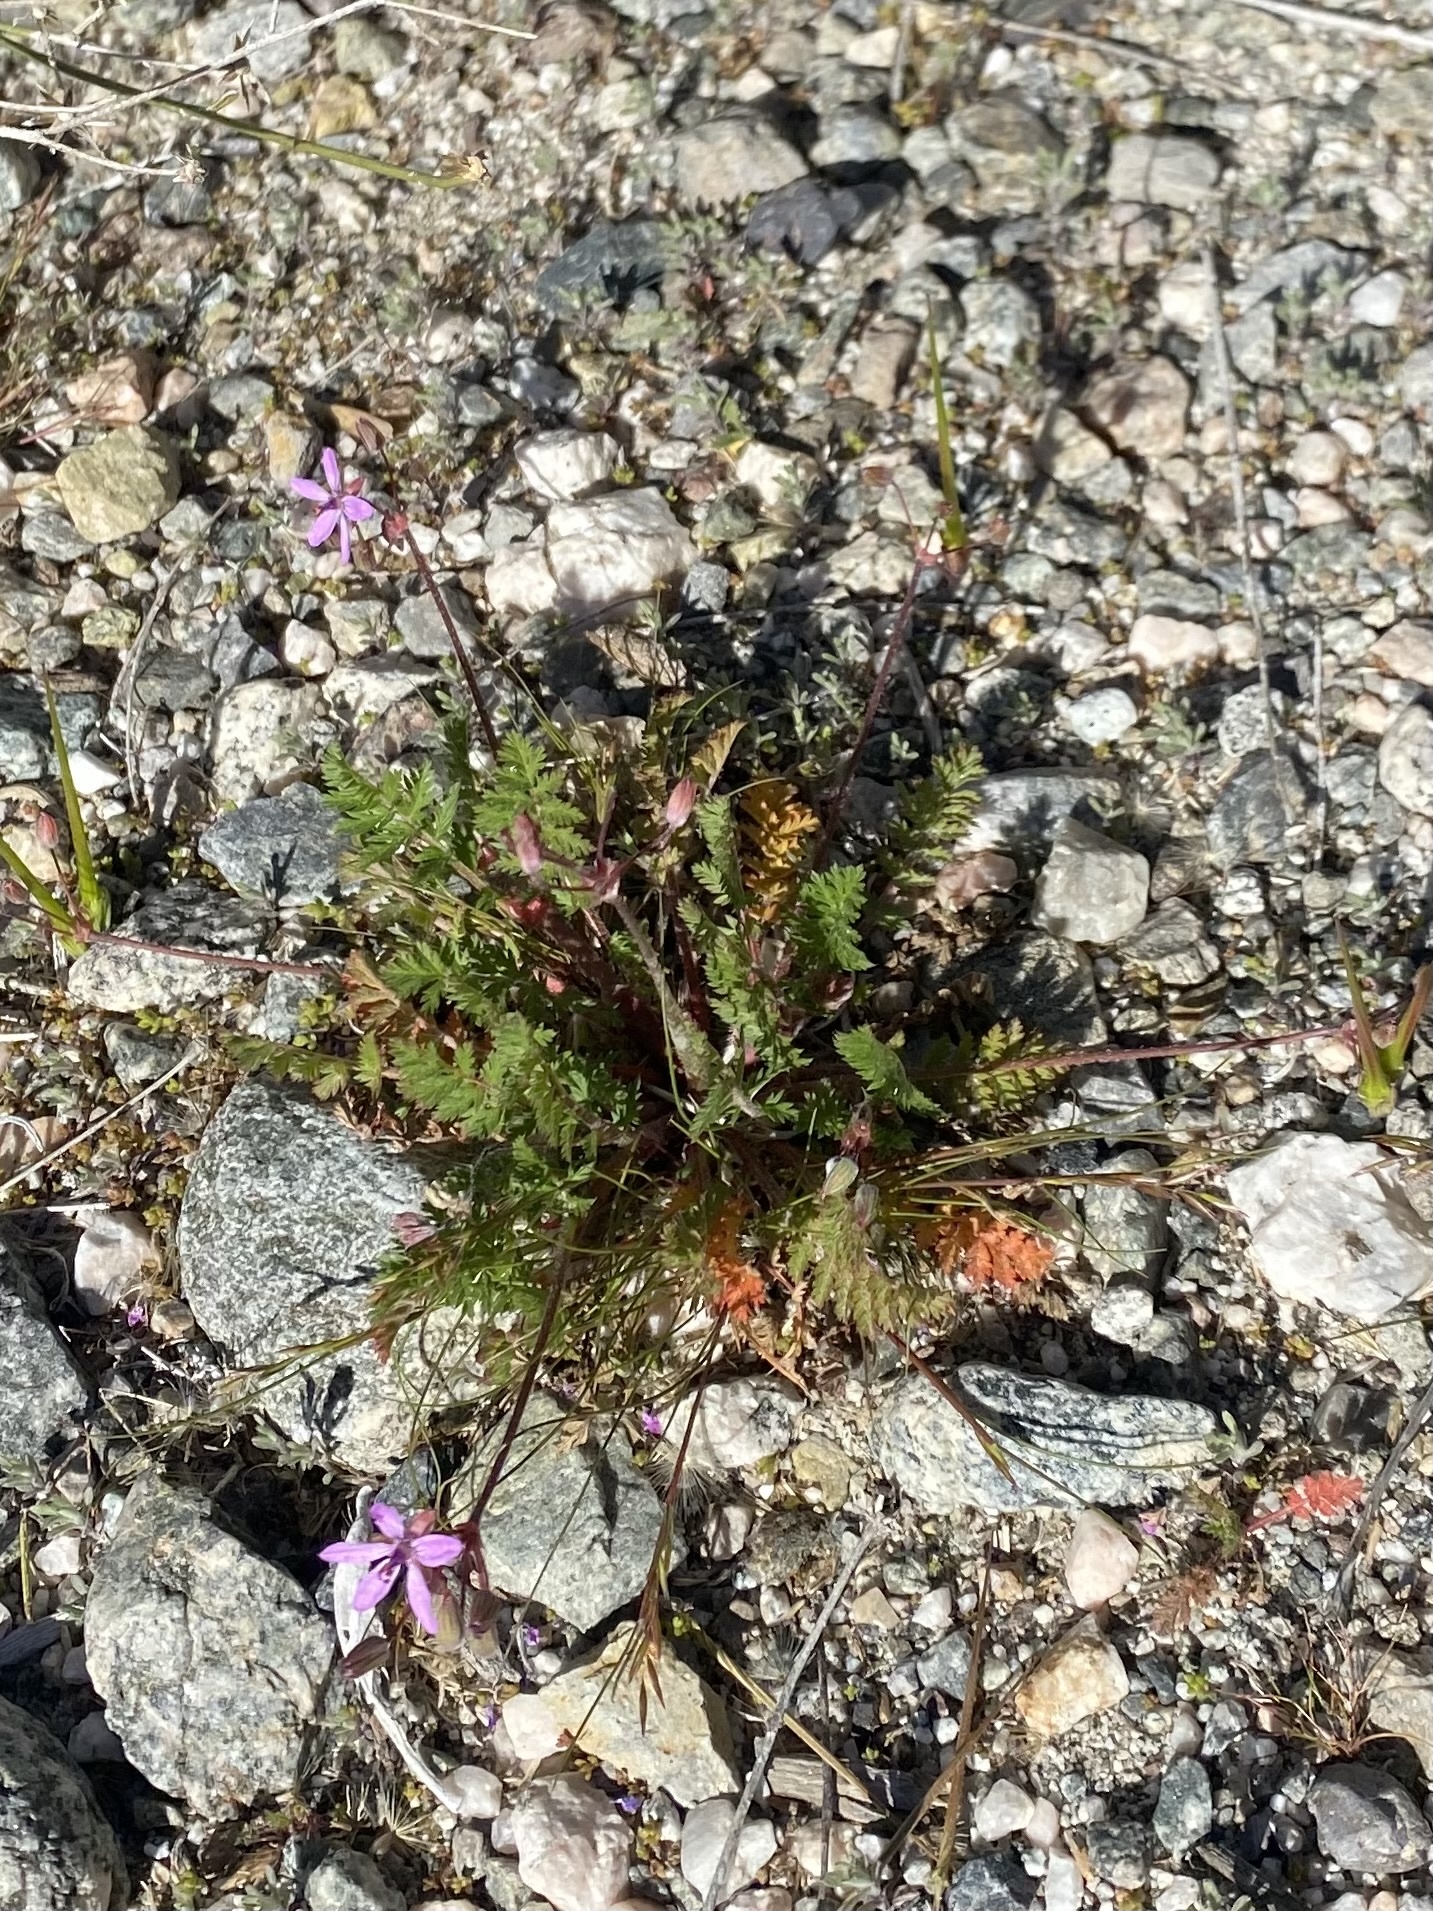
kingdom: Plantae
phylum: Tracheophyta
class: Magnoliopsida
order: Geraniales
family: Geraniaceae
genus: Erodium
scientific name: Erodium cicutarium
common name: Common stork's-bill
